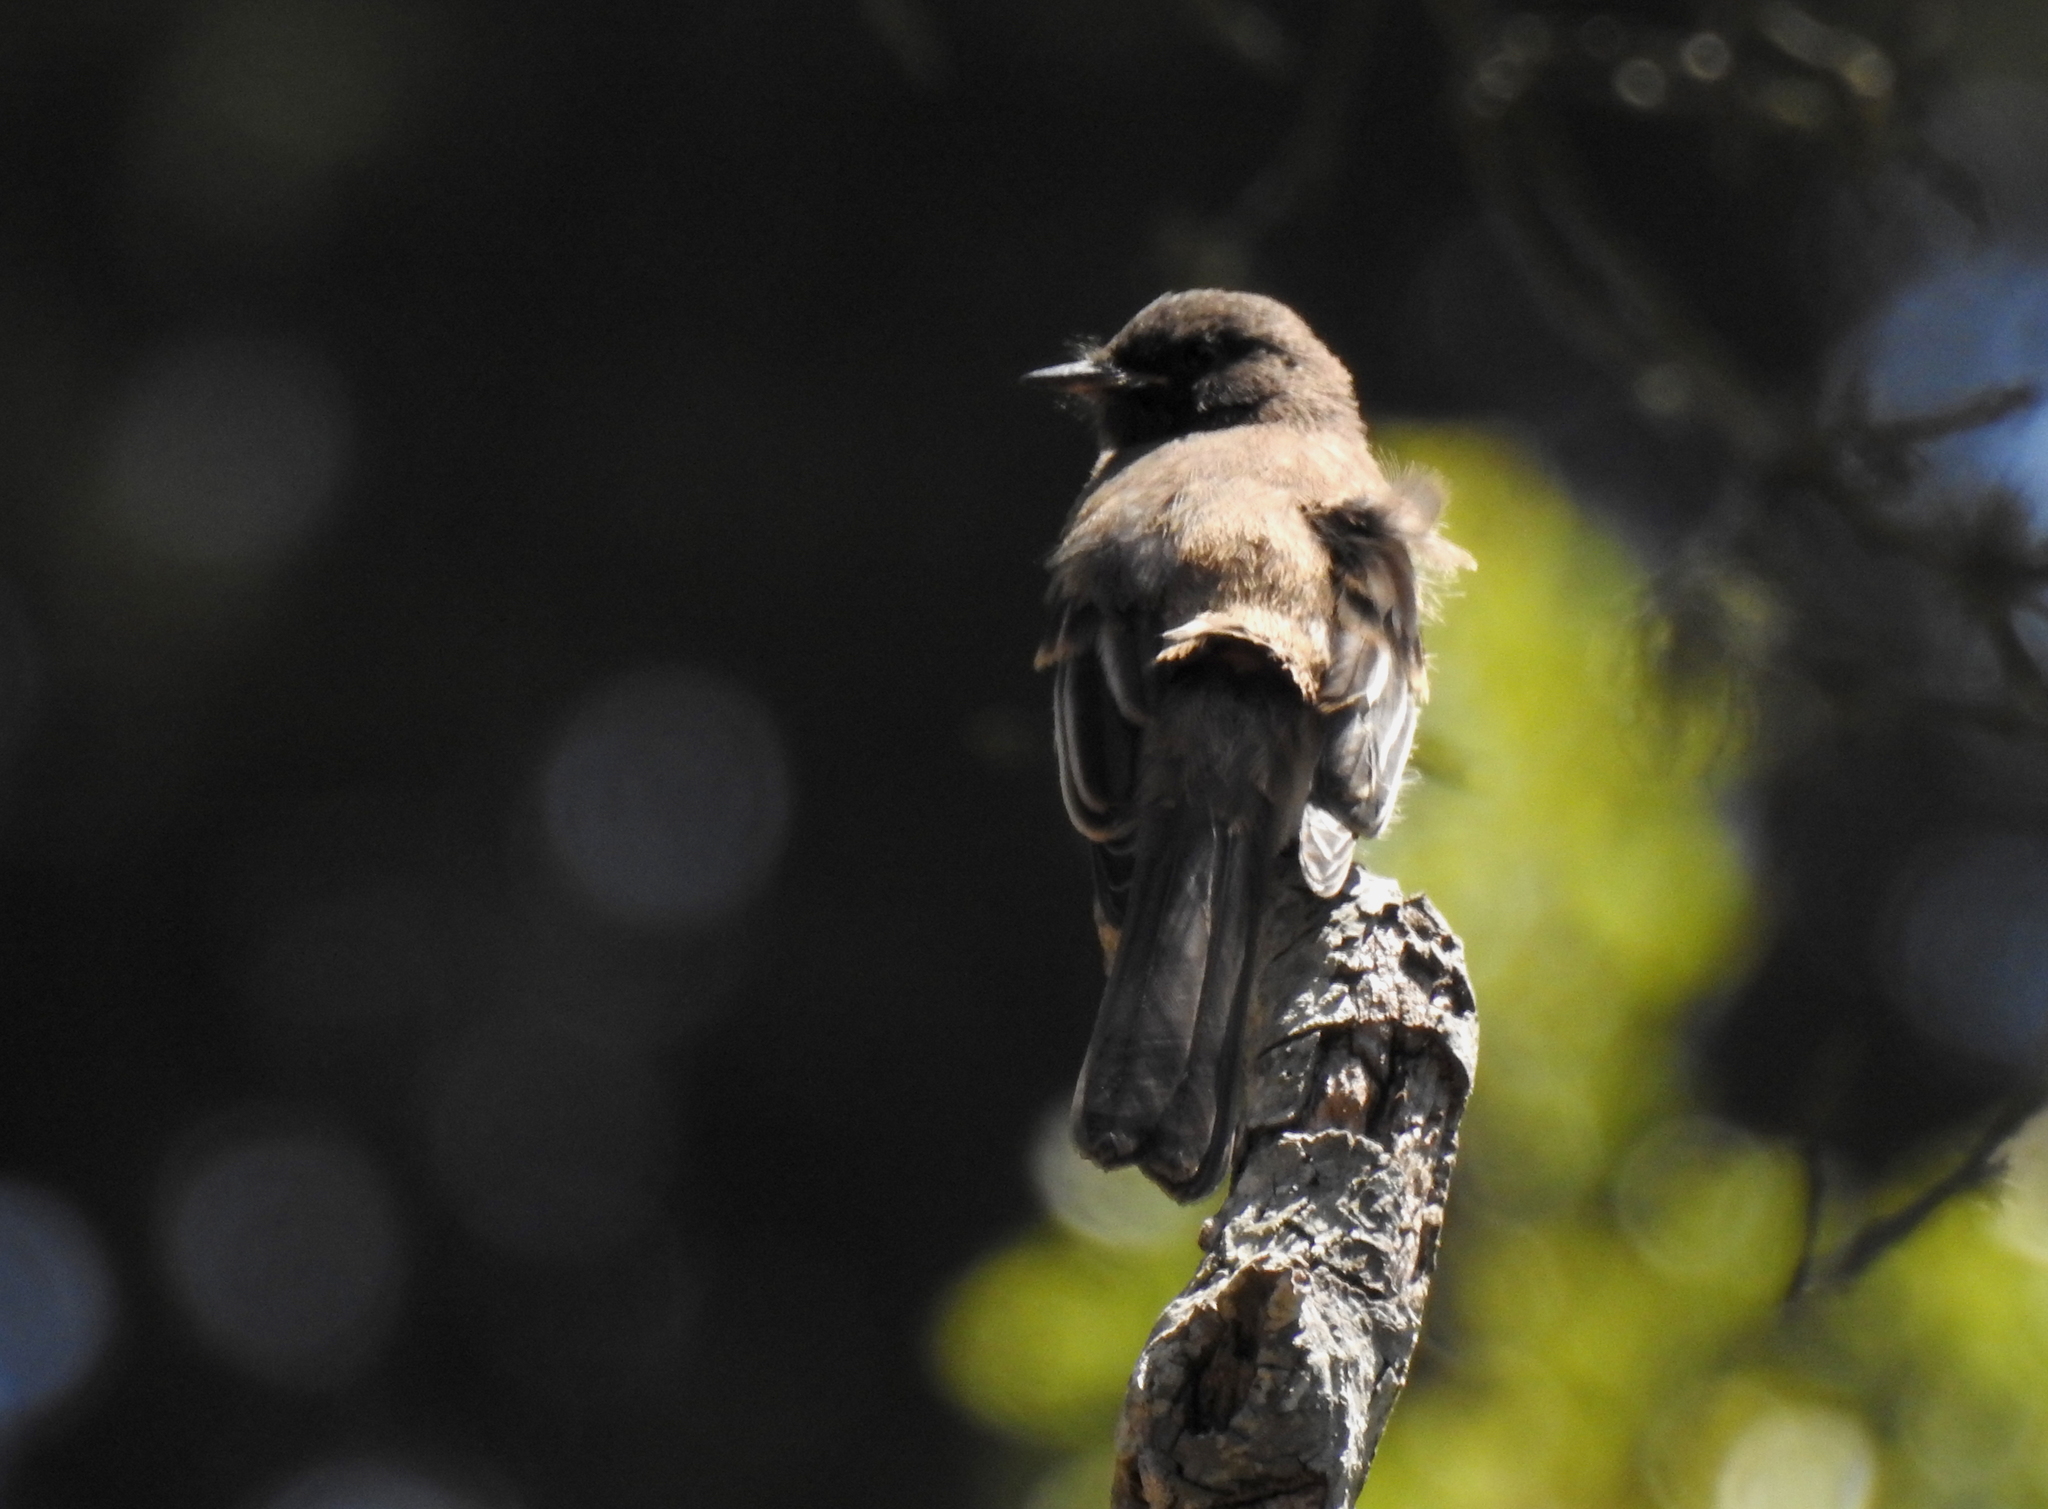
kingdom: Animalia
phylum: Chordata
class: Aves
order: Passeriformes
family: Tyrannidae
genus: Sayornis
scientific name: Sayornis nigricans
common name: Black phoebe
